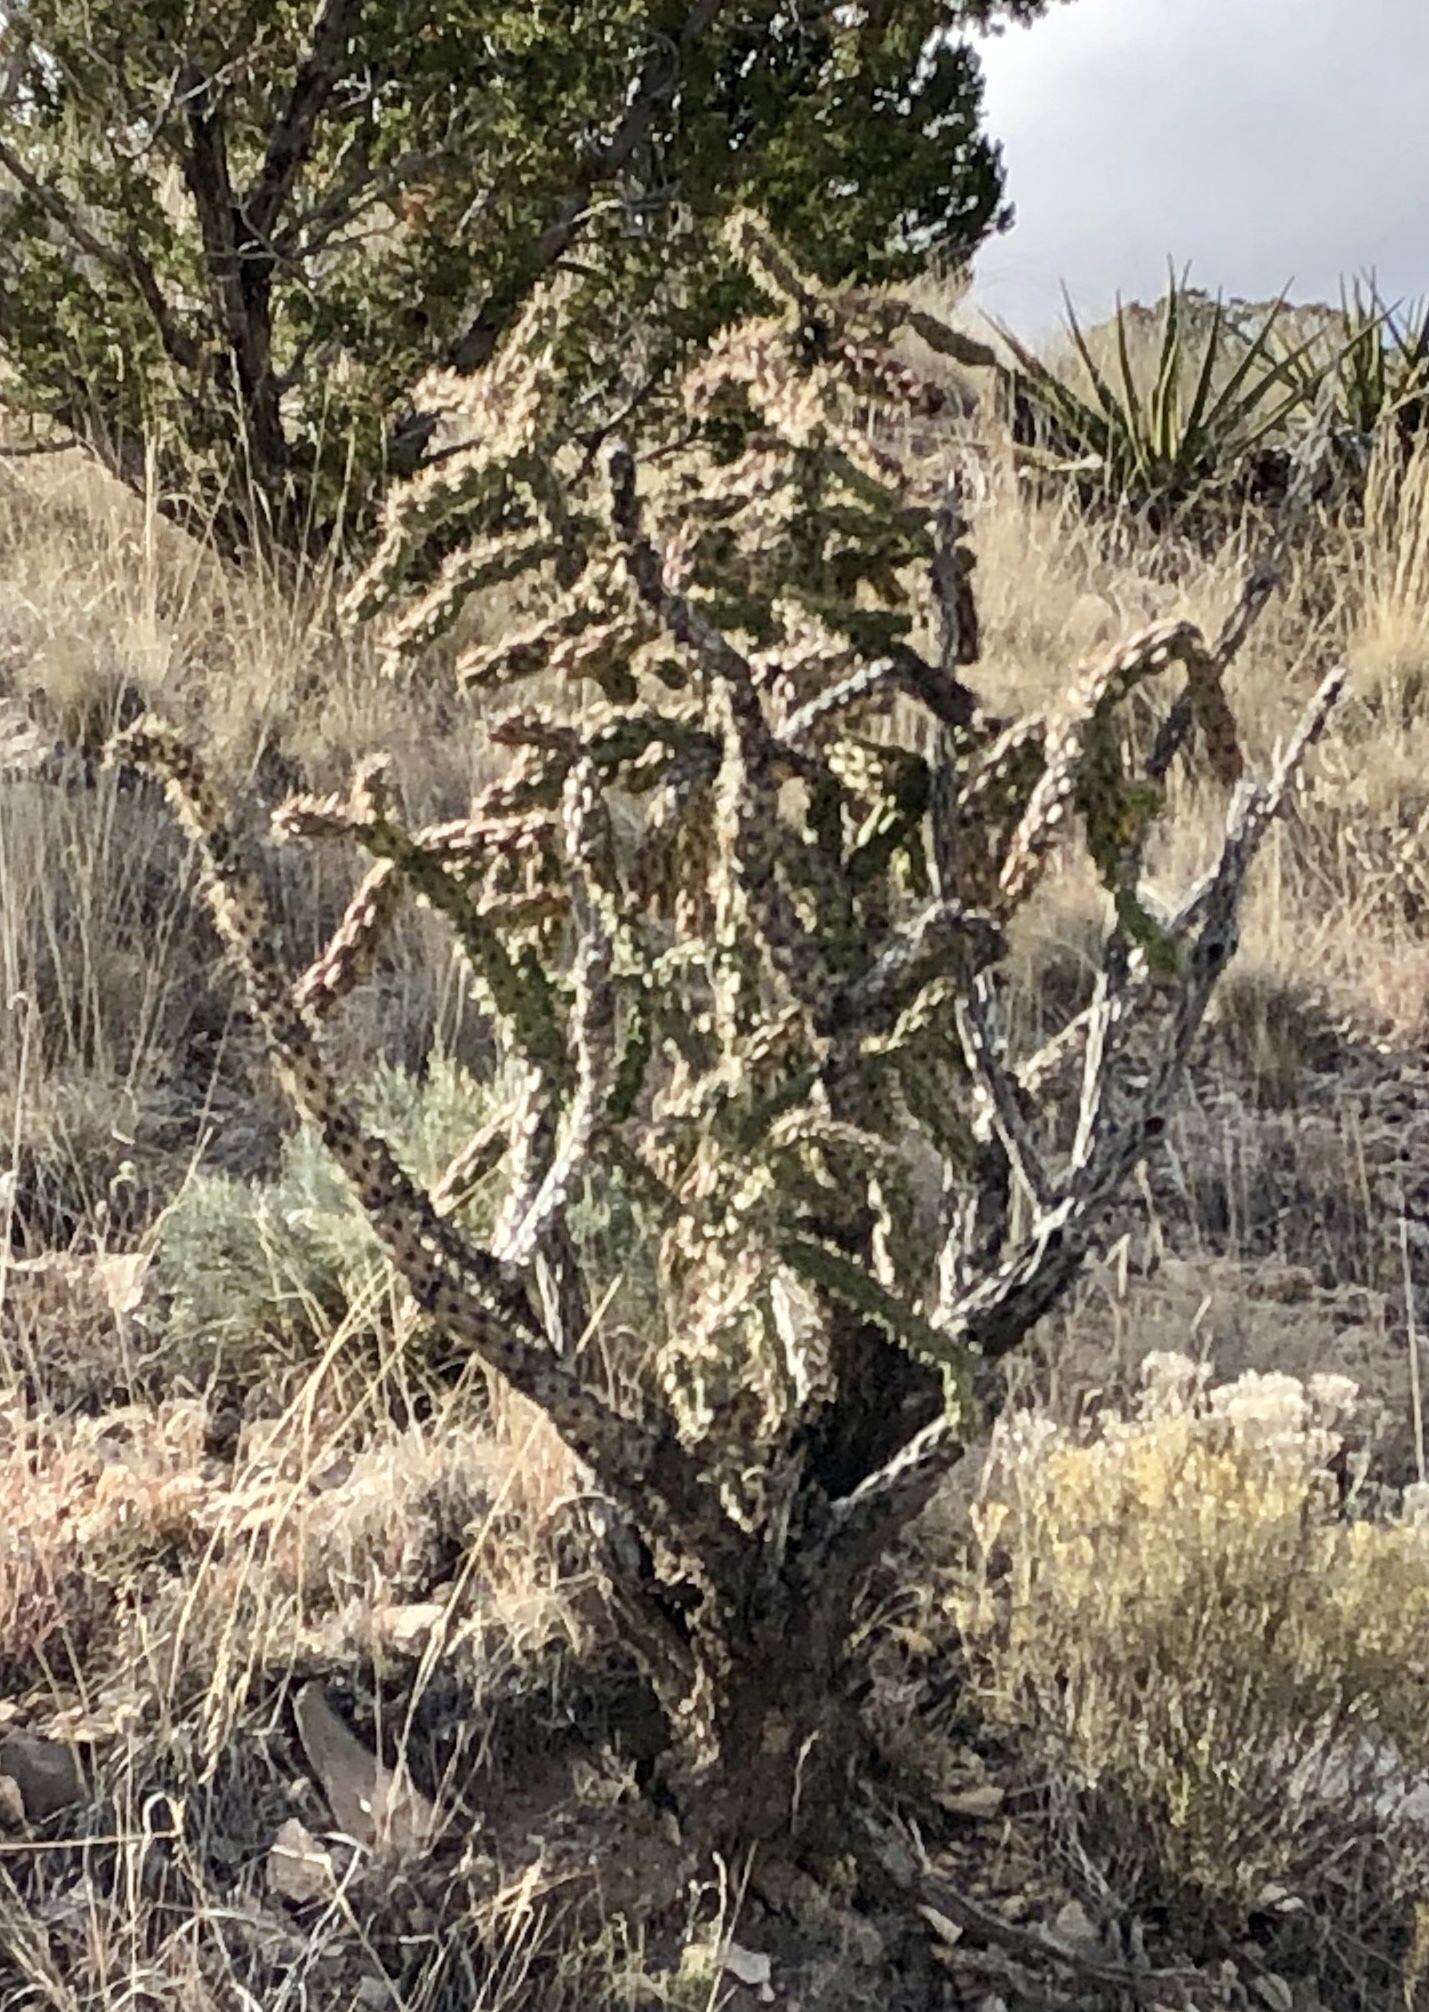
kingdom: Plantae
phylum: Tracheophyta
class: Magnoliopsida
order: Caryophyllales
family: Cactaceae
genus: Cylindropuntia
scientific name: Cylindropuntia imbricata
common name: Candelabrum cactus
